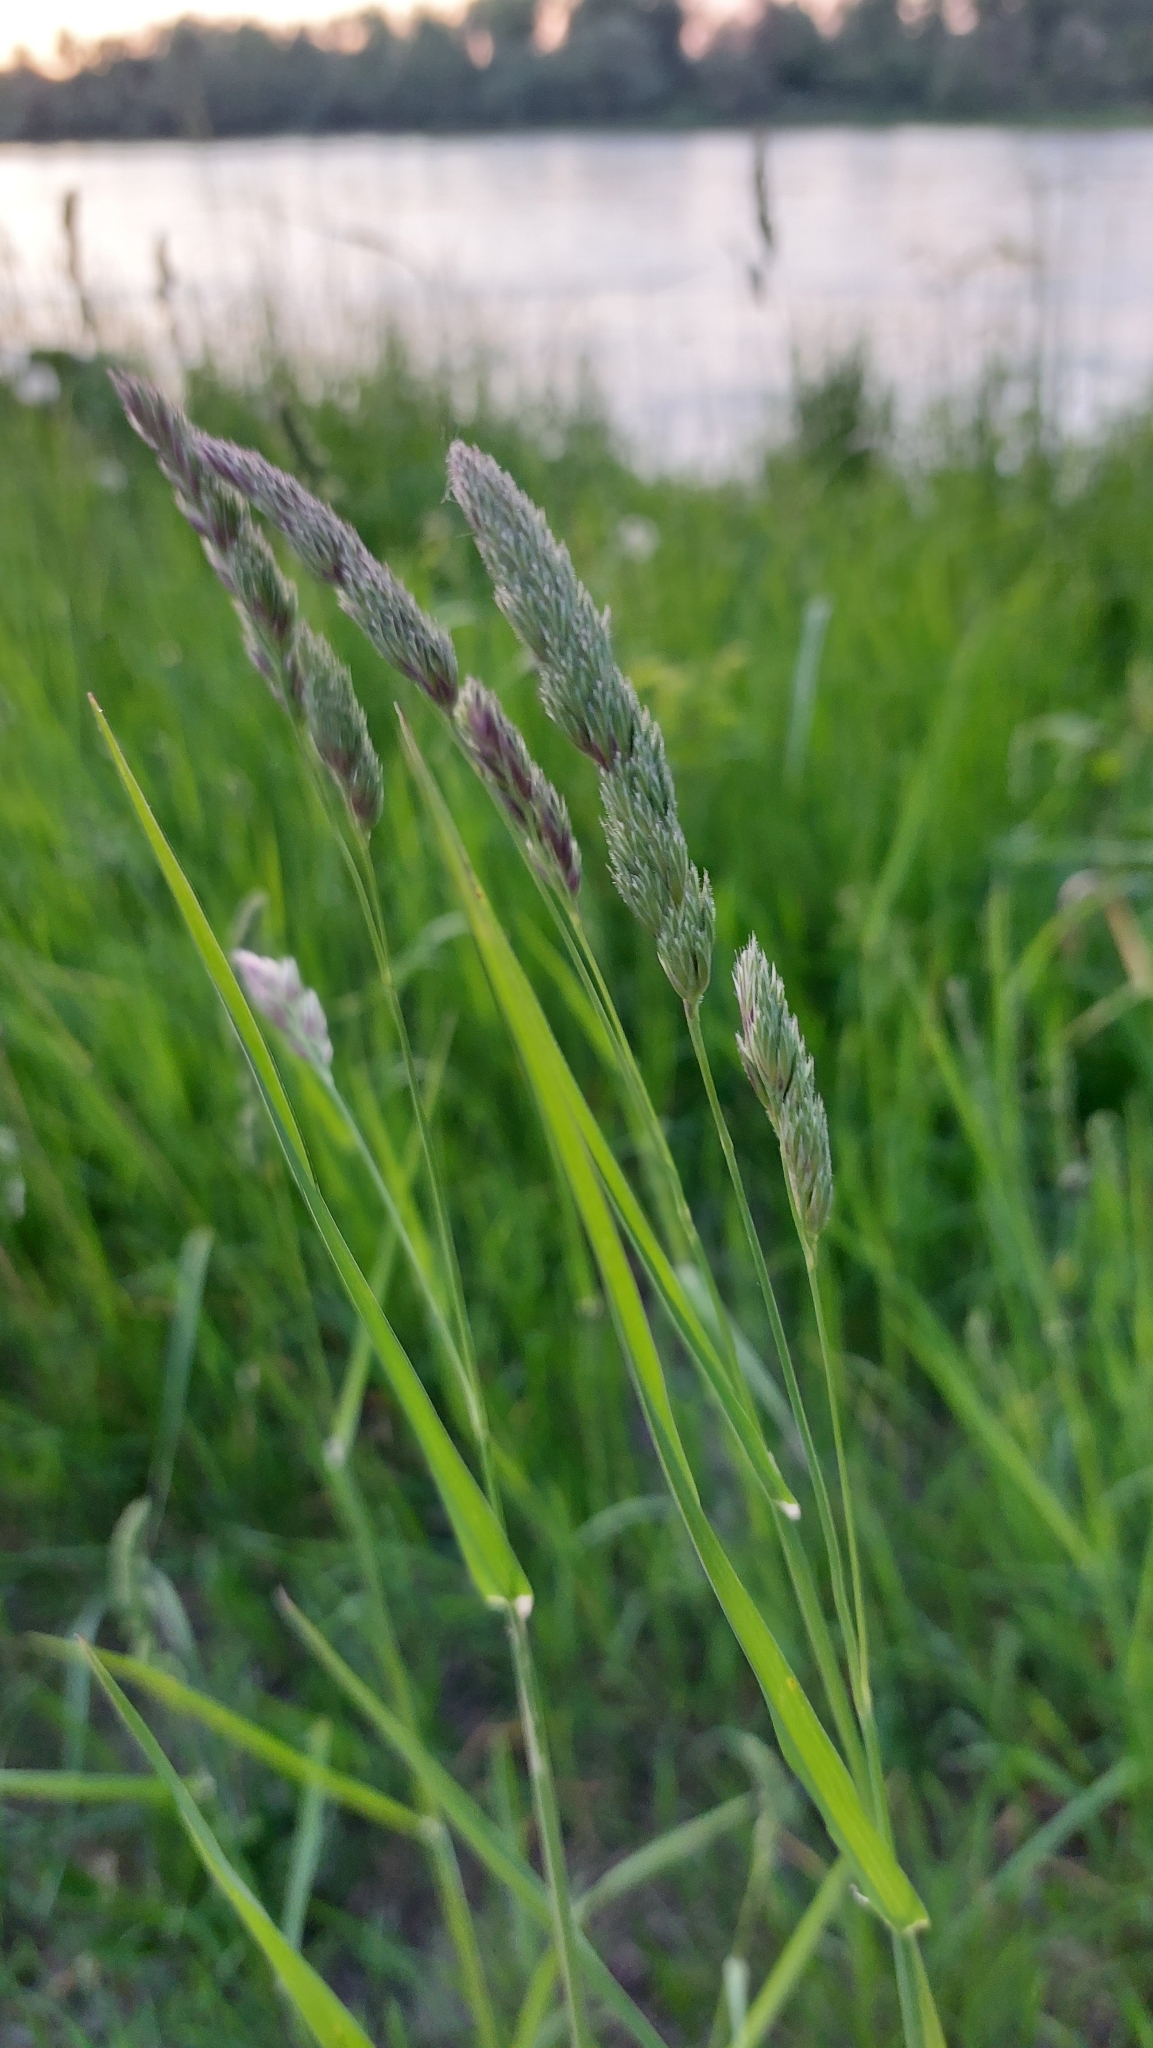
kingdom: Plantae
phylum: Tracheophyta
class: Liliopsida
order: Poales
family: Poaceae
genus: Dactylis
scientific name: Dactylis glomerata
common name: Orchardgrass
